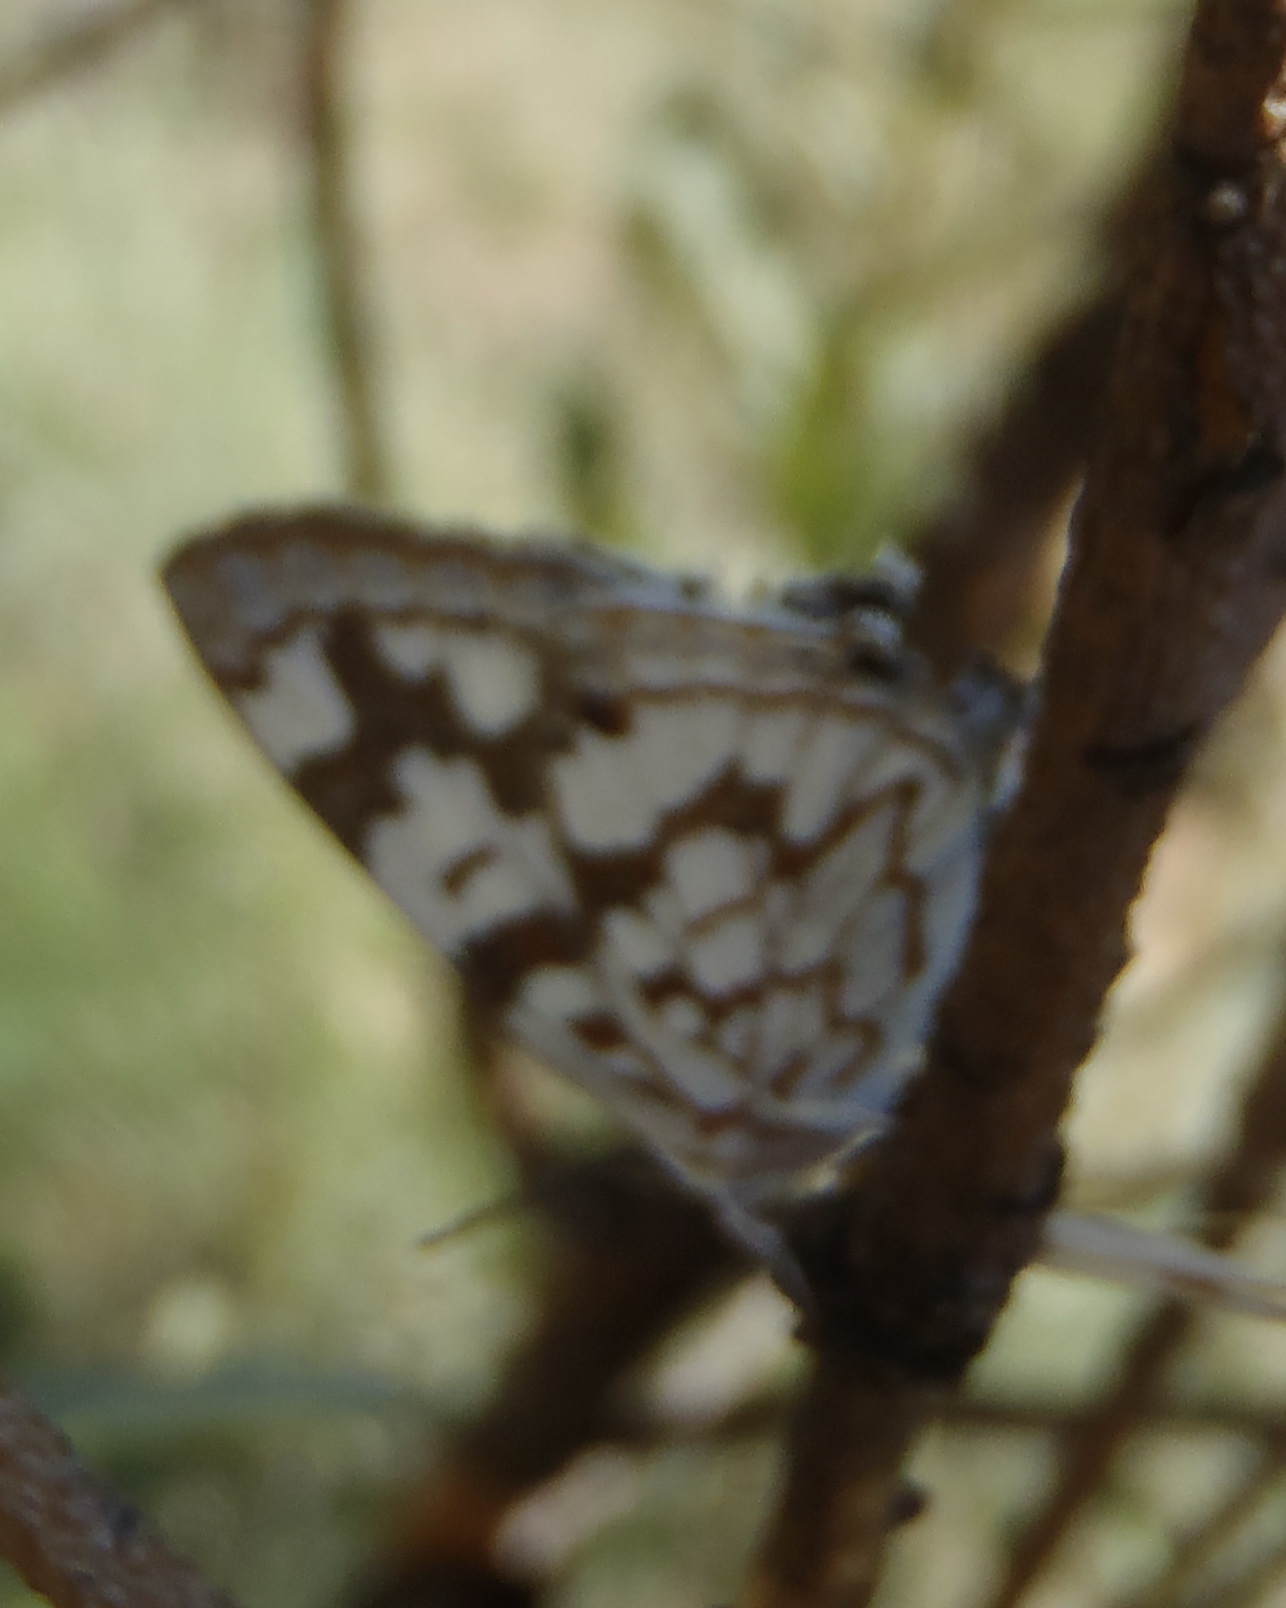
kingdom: Animalia
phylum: Arthropoda
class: Insecta
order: Lepidoptera
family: Lycaenidae
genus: Stugeta
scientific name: Stugeta bowkeri
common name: Bowker's marbled sapphire
